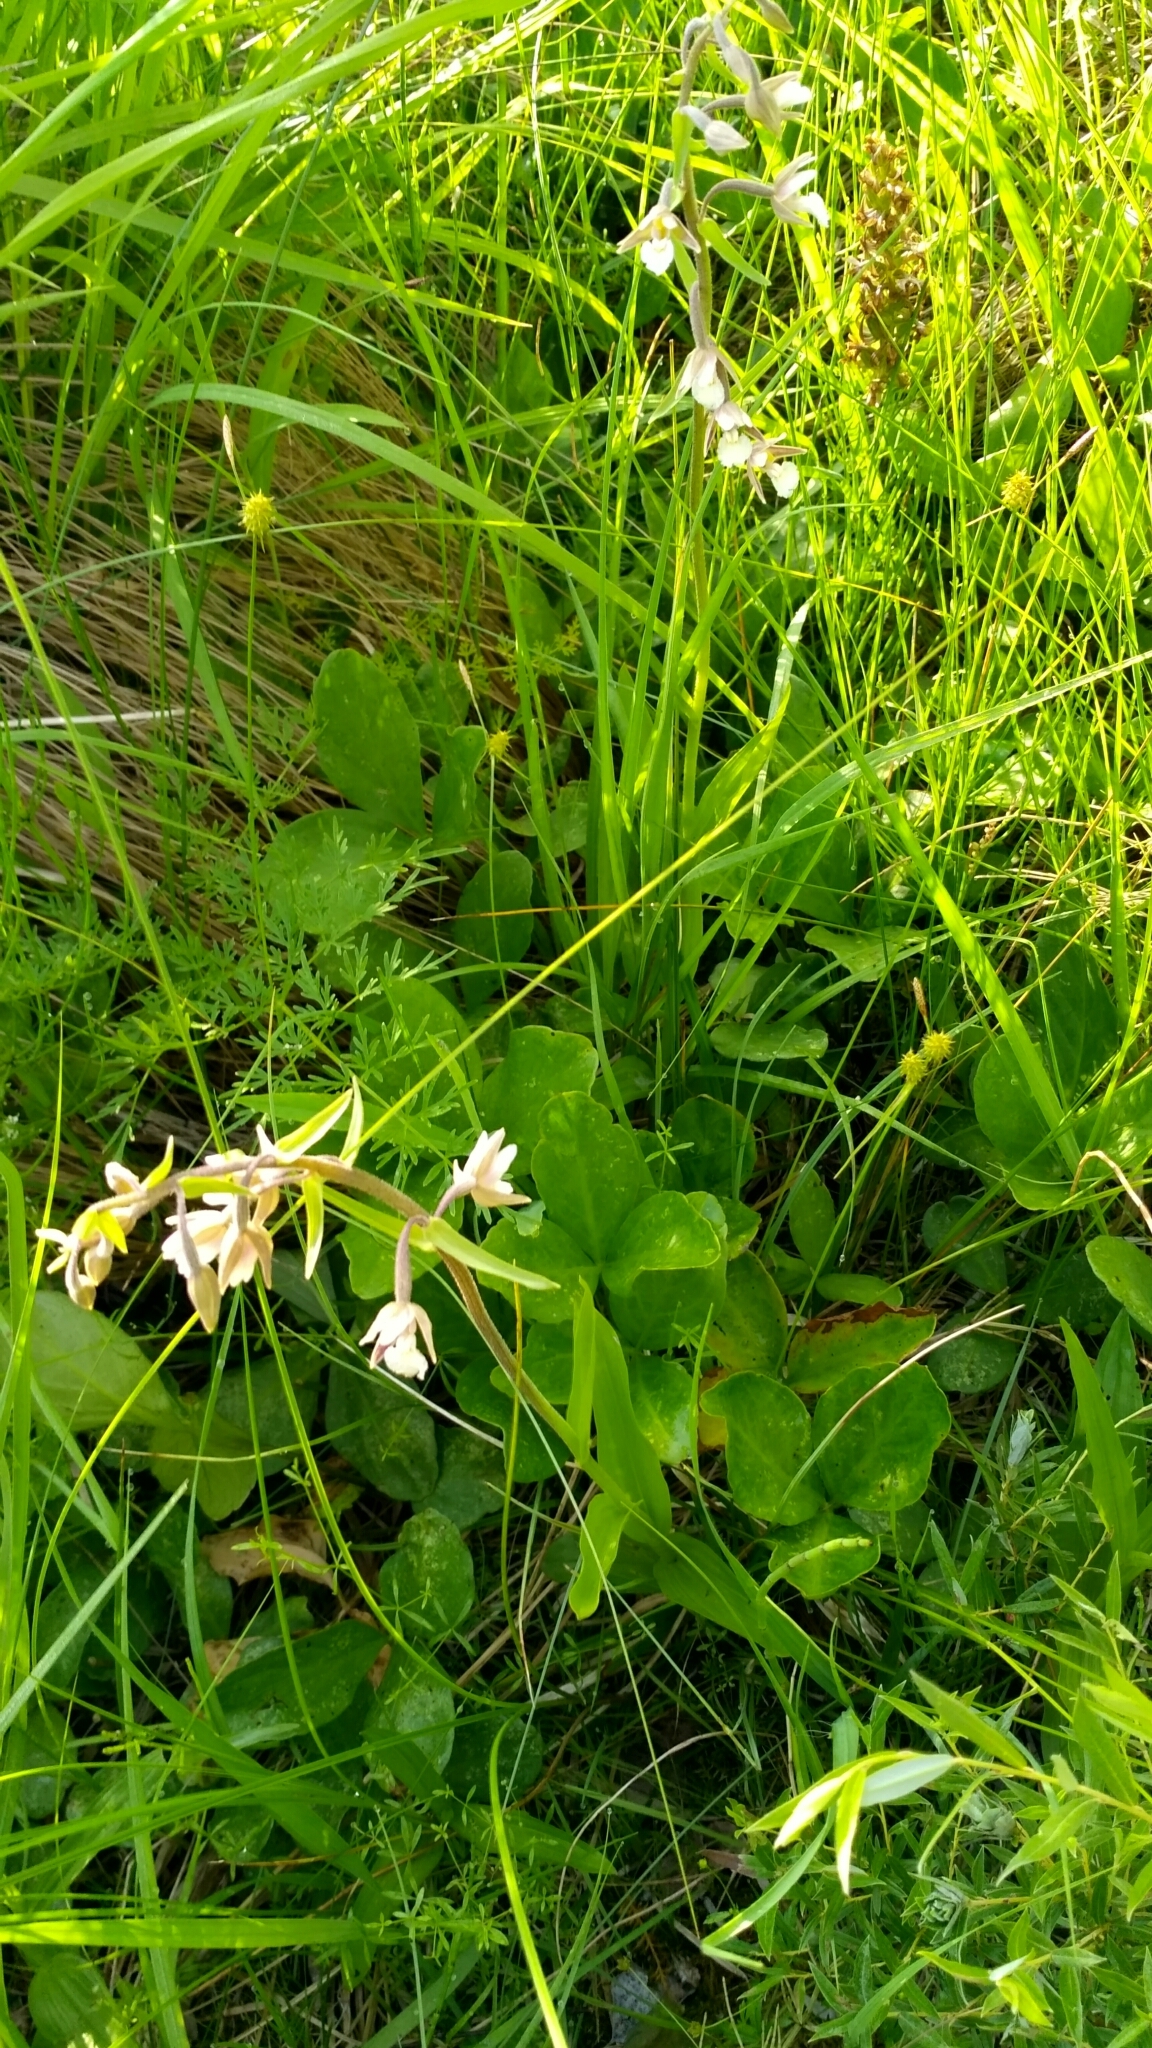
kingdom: Plantae
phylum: Tracheophyta
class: Liliopsida
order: Asparagales
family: Orchidaceae
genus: Epipactis
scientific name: Epipactis palustris
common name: Marsh helleborine
